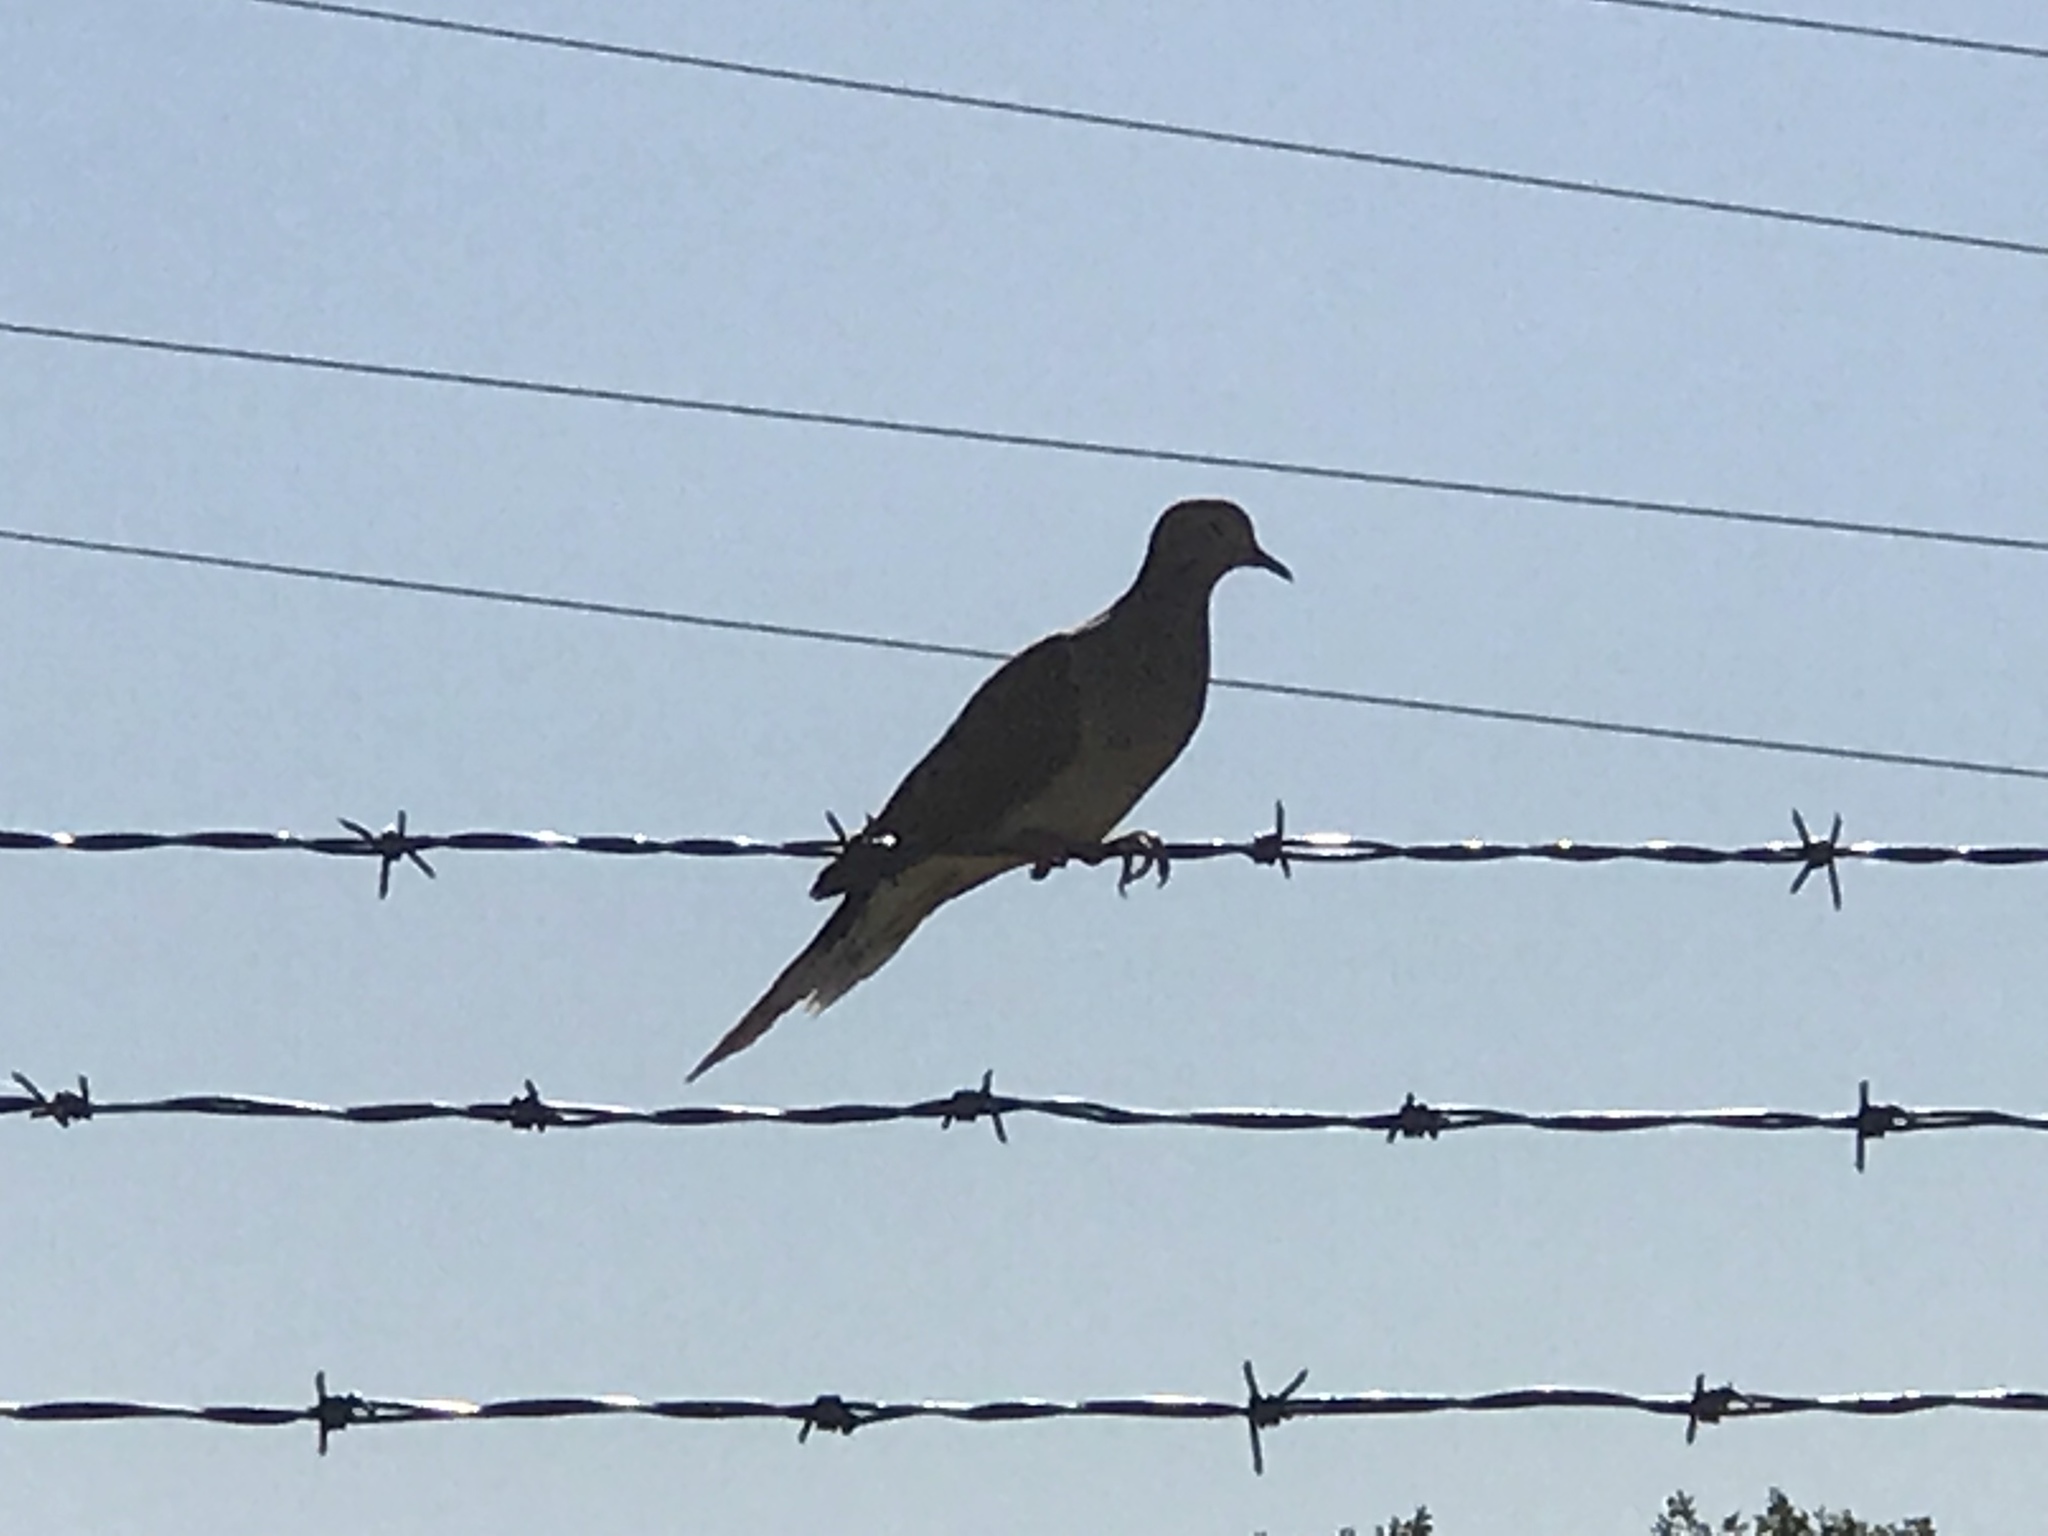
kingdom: Animalia
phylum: Chordata
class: Aves
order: Columbiformes
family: Columbidae
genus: Zenaida
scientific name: Zenaida macroura
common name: Mourning dove
